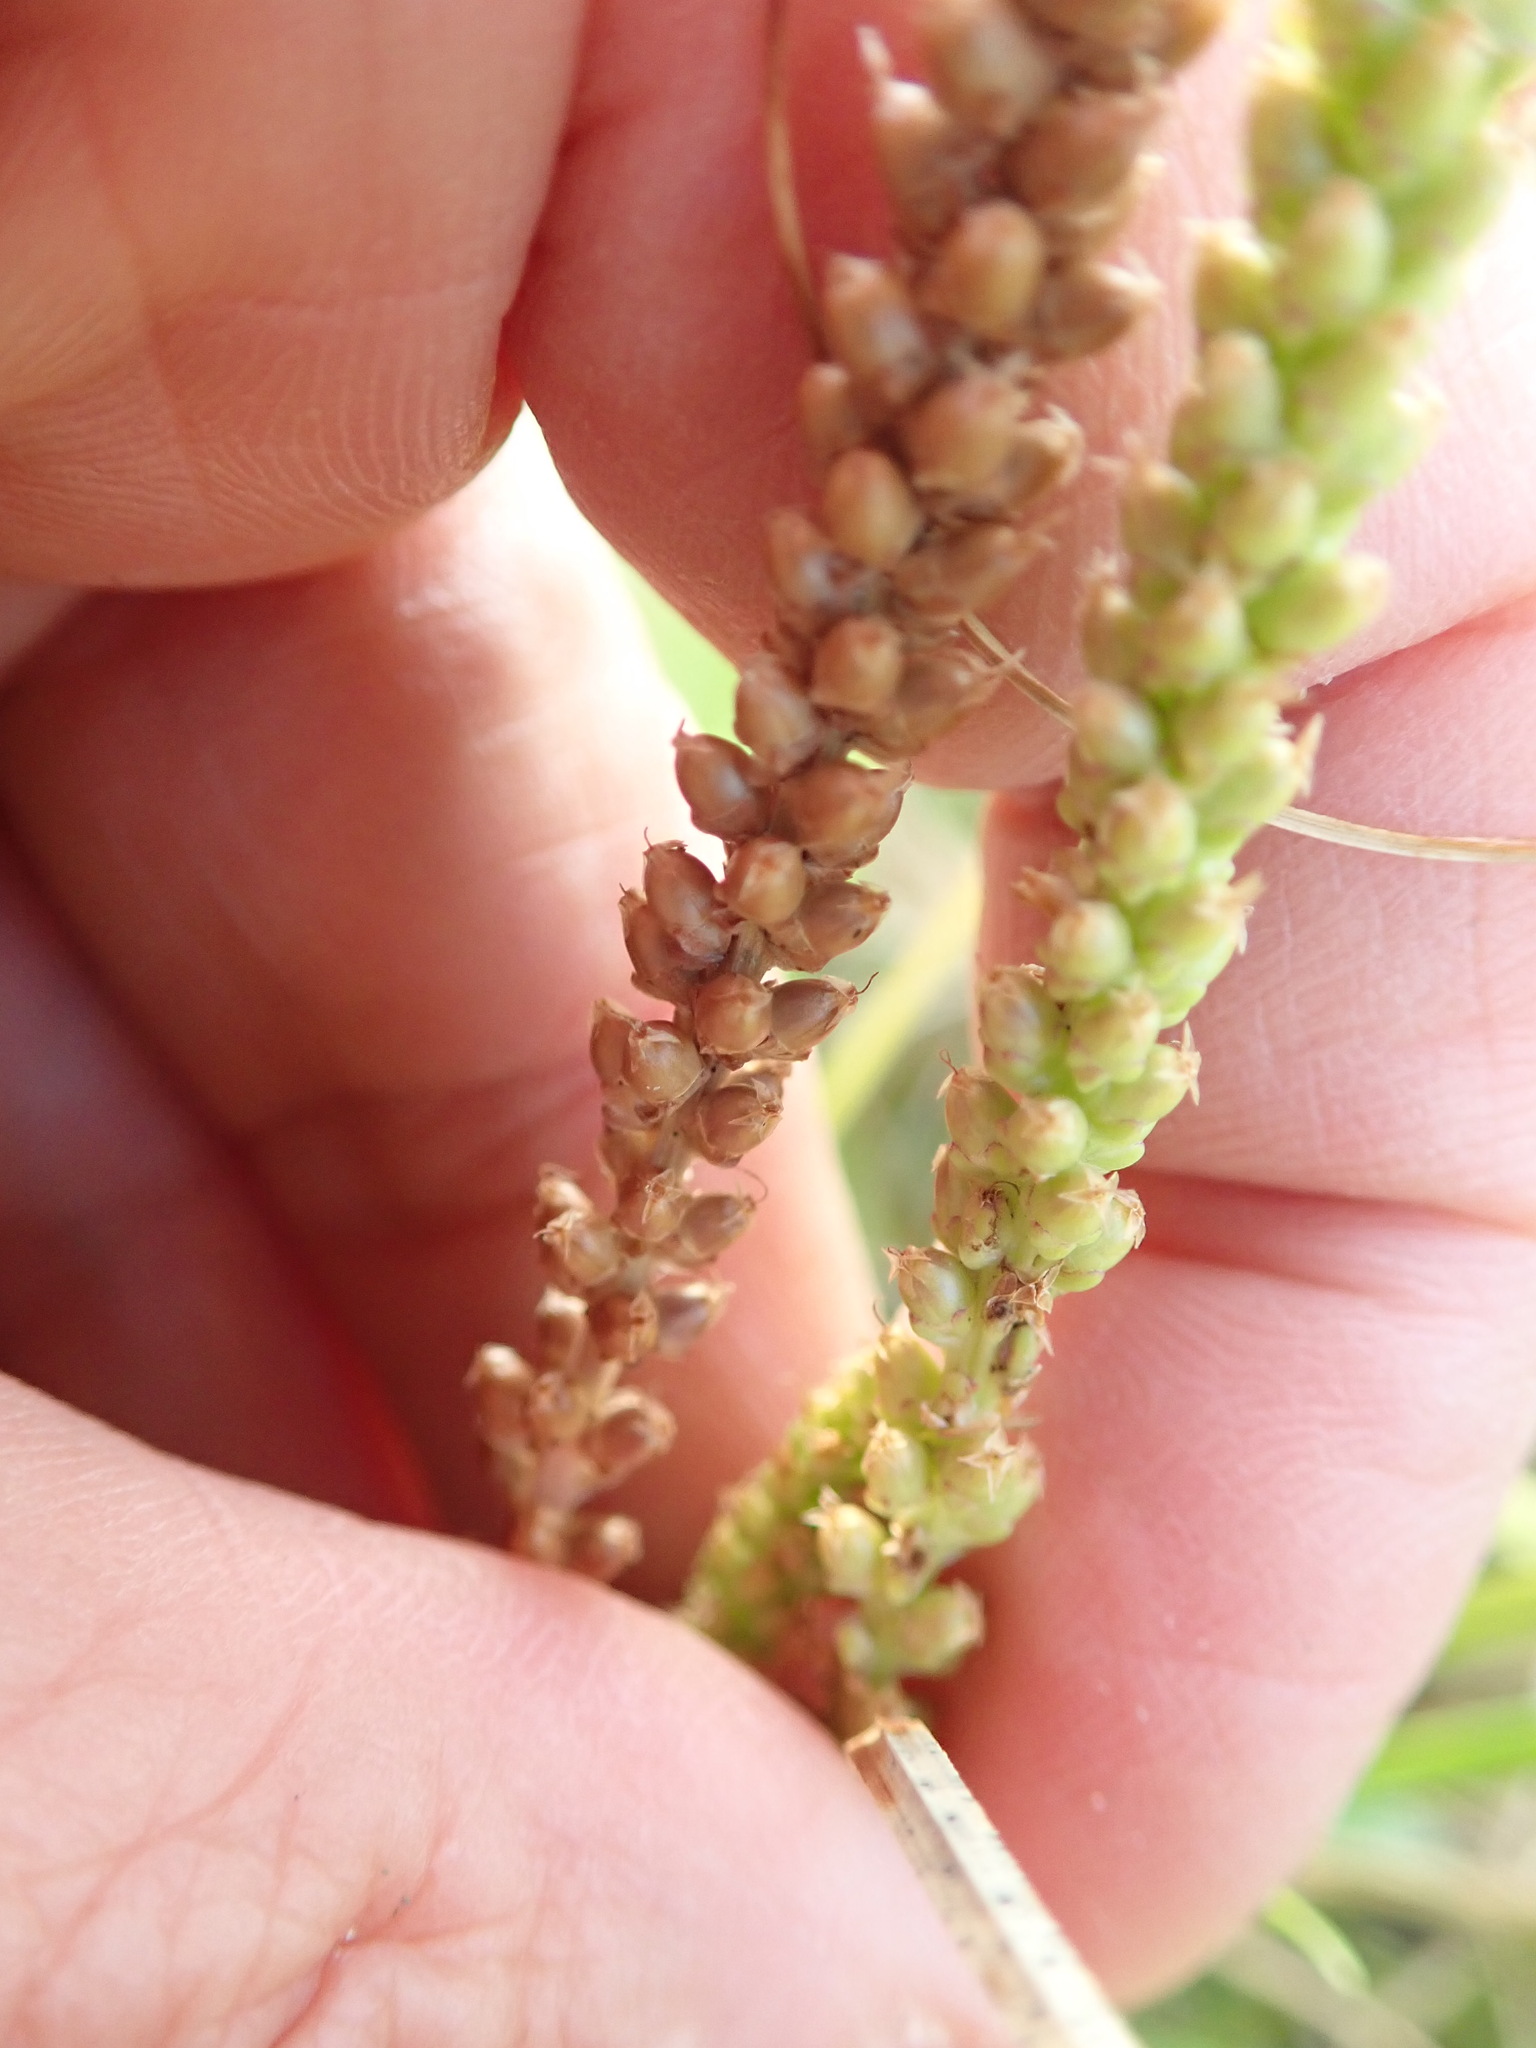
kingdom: Plantae
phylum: Tracheophyta
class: Magnoliopsida
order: Lamiales
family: Plantaginaceae
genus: Plantago
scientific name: Plantago major
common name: Common plantain
